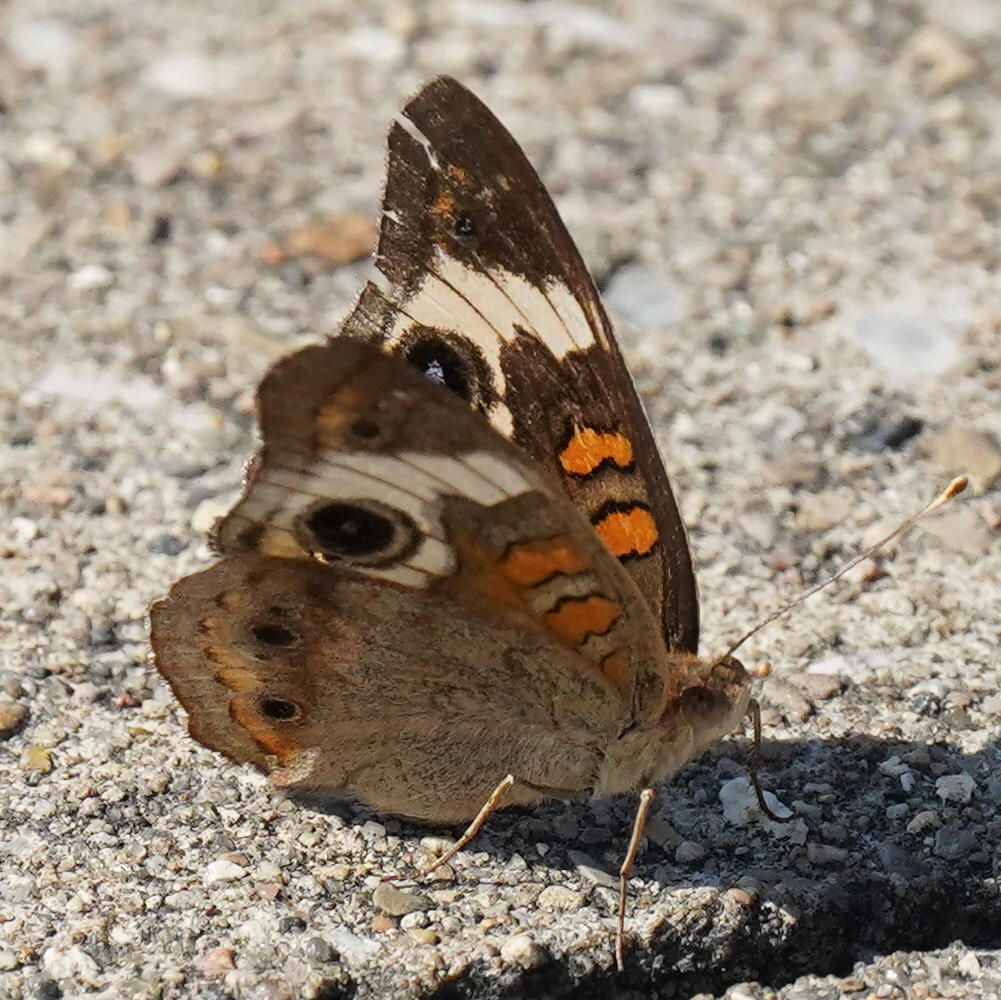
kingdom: Animalia
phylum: Arthropoda
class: Insecta
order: Lepidoptera
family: Nymphalidae
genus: Junonia
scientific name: Junonia coenia
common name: Common buckeye
